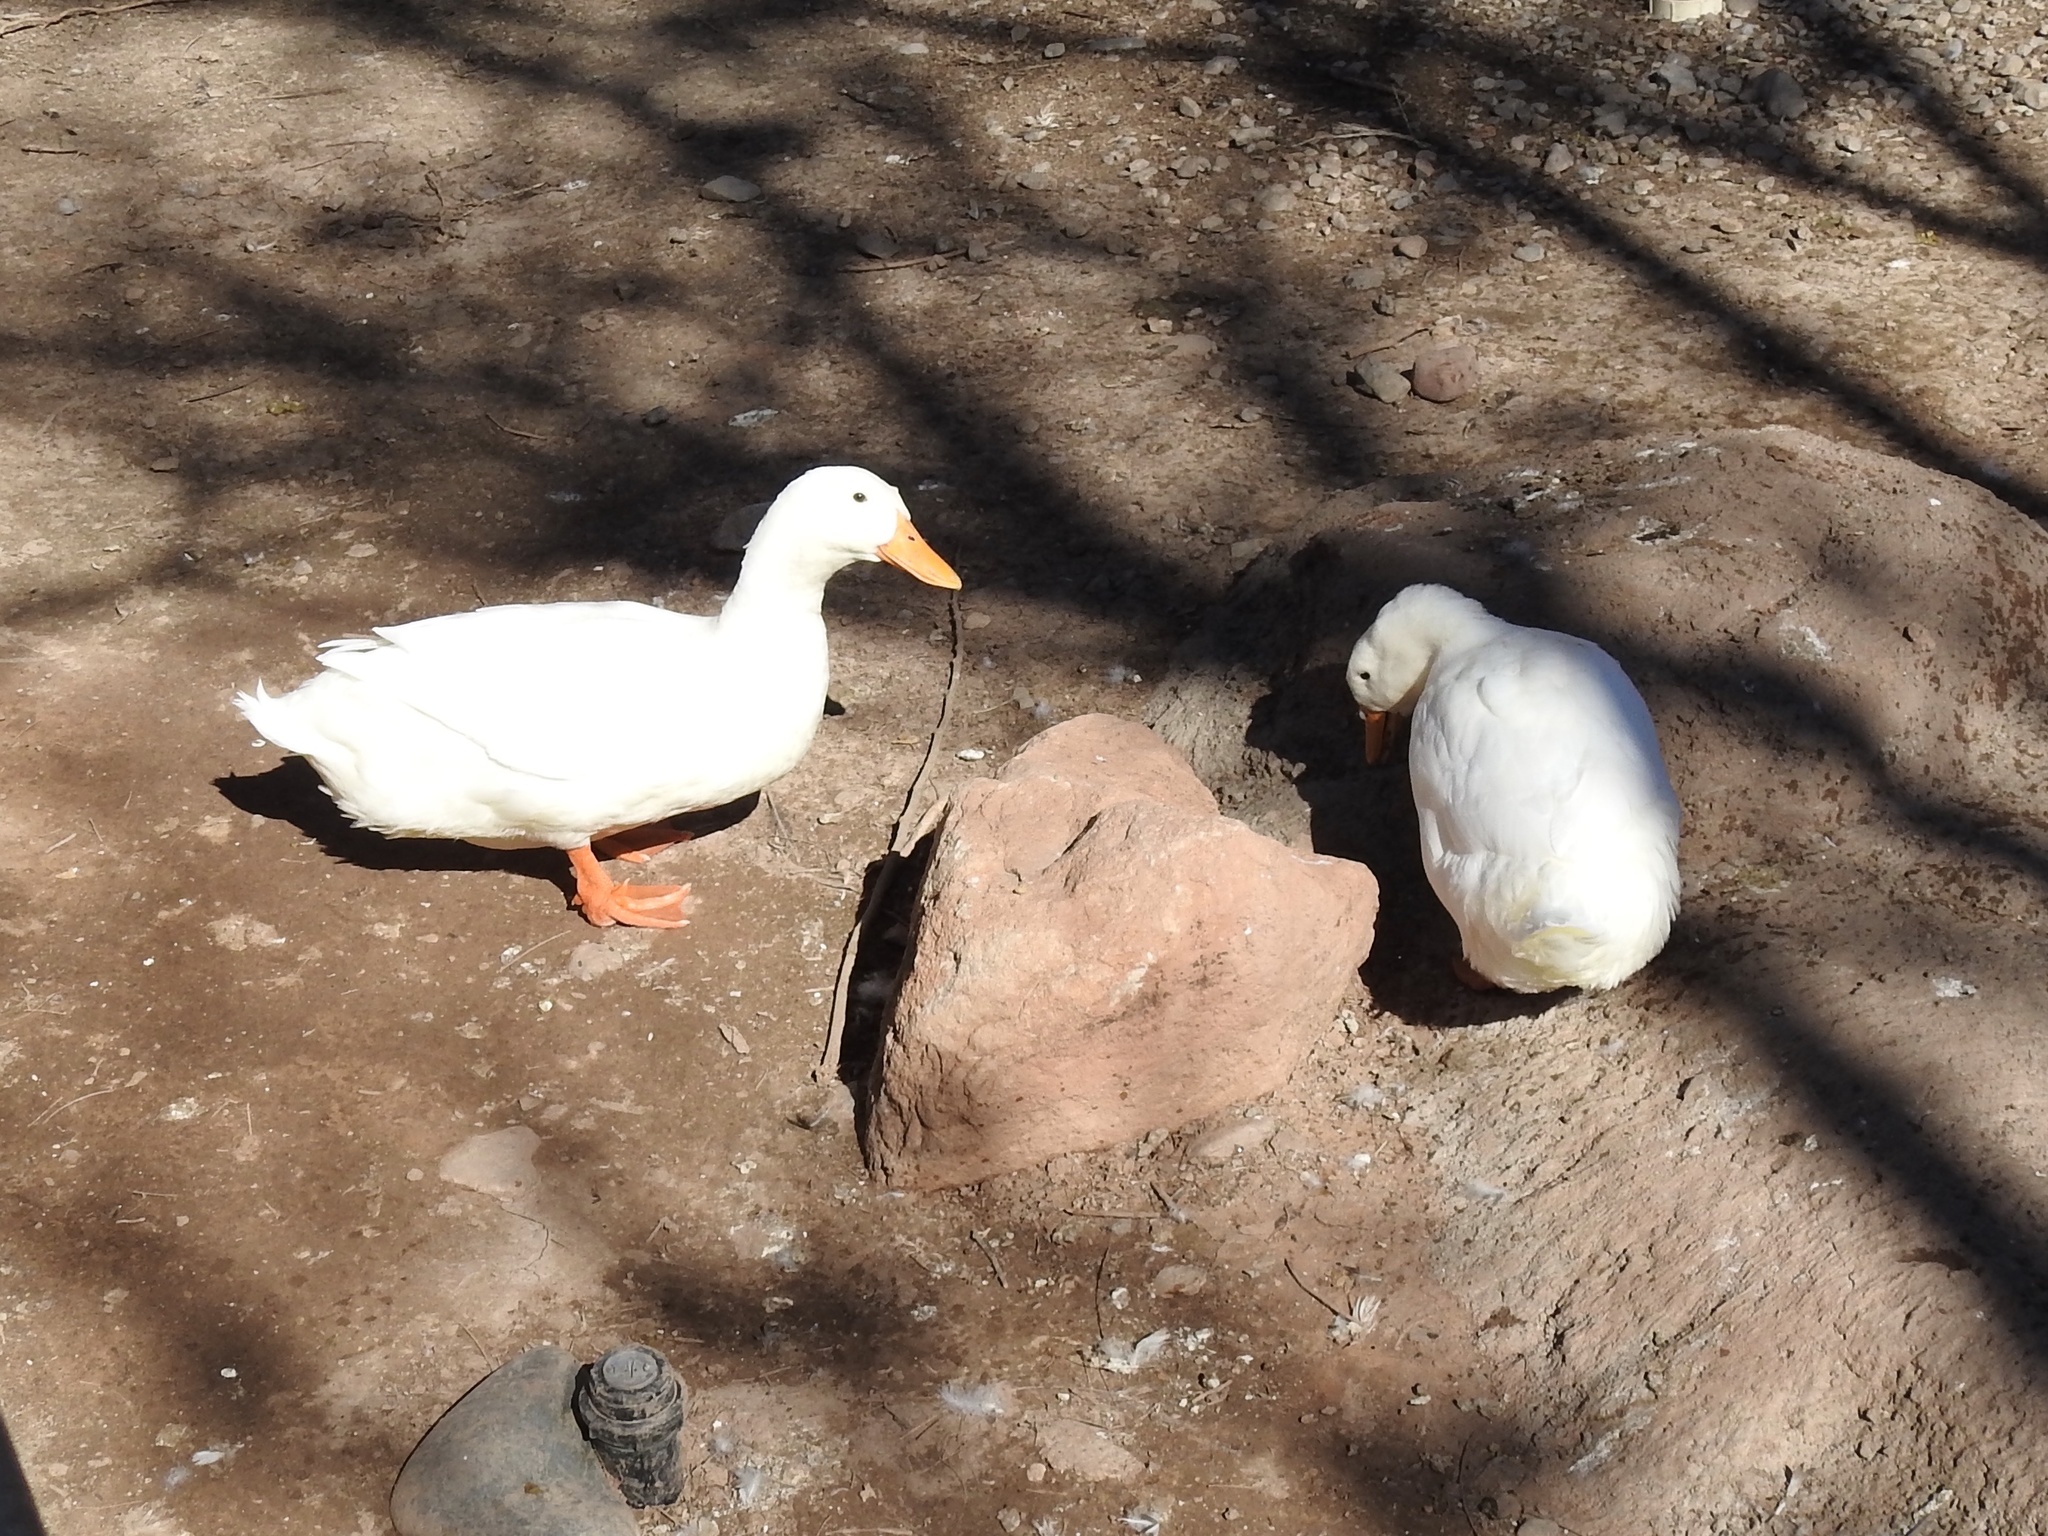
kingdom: Animalia
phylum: Chordata
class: Aves
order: Anseriformes
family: Anatidae
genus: Anas
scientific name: Anas platyrhynchos
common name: Mallard
